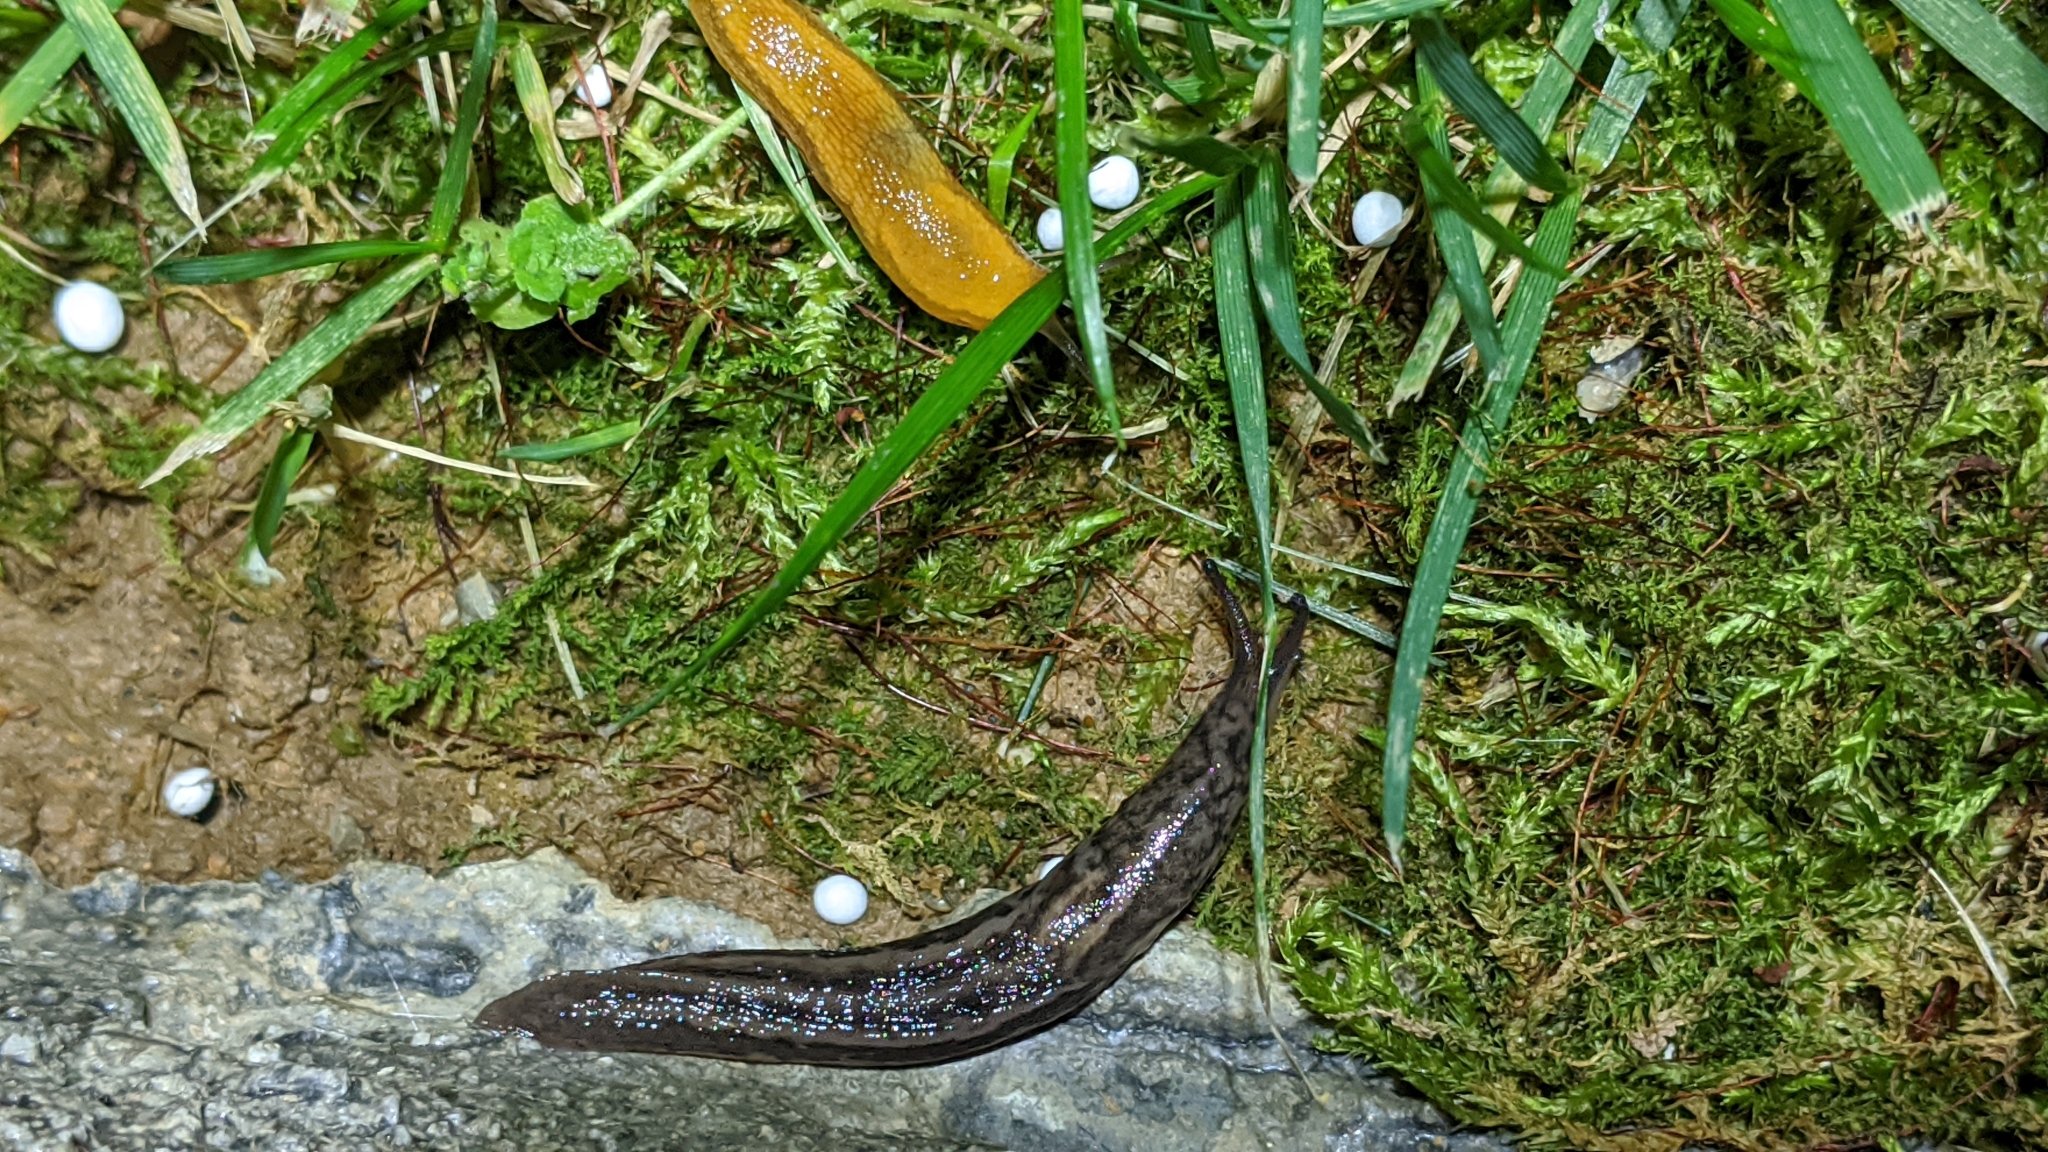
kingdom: Animalia
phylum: Mollusca
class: Gastropoda
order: Stylommatophora
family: Limacidae
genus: Limax
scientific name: Limax maximus
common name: Great grey slug
